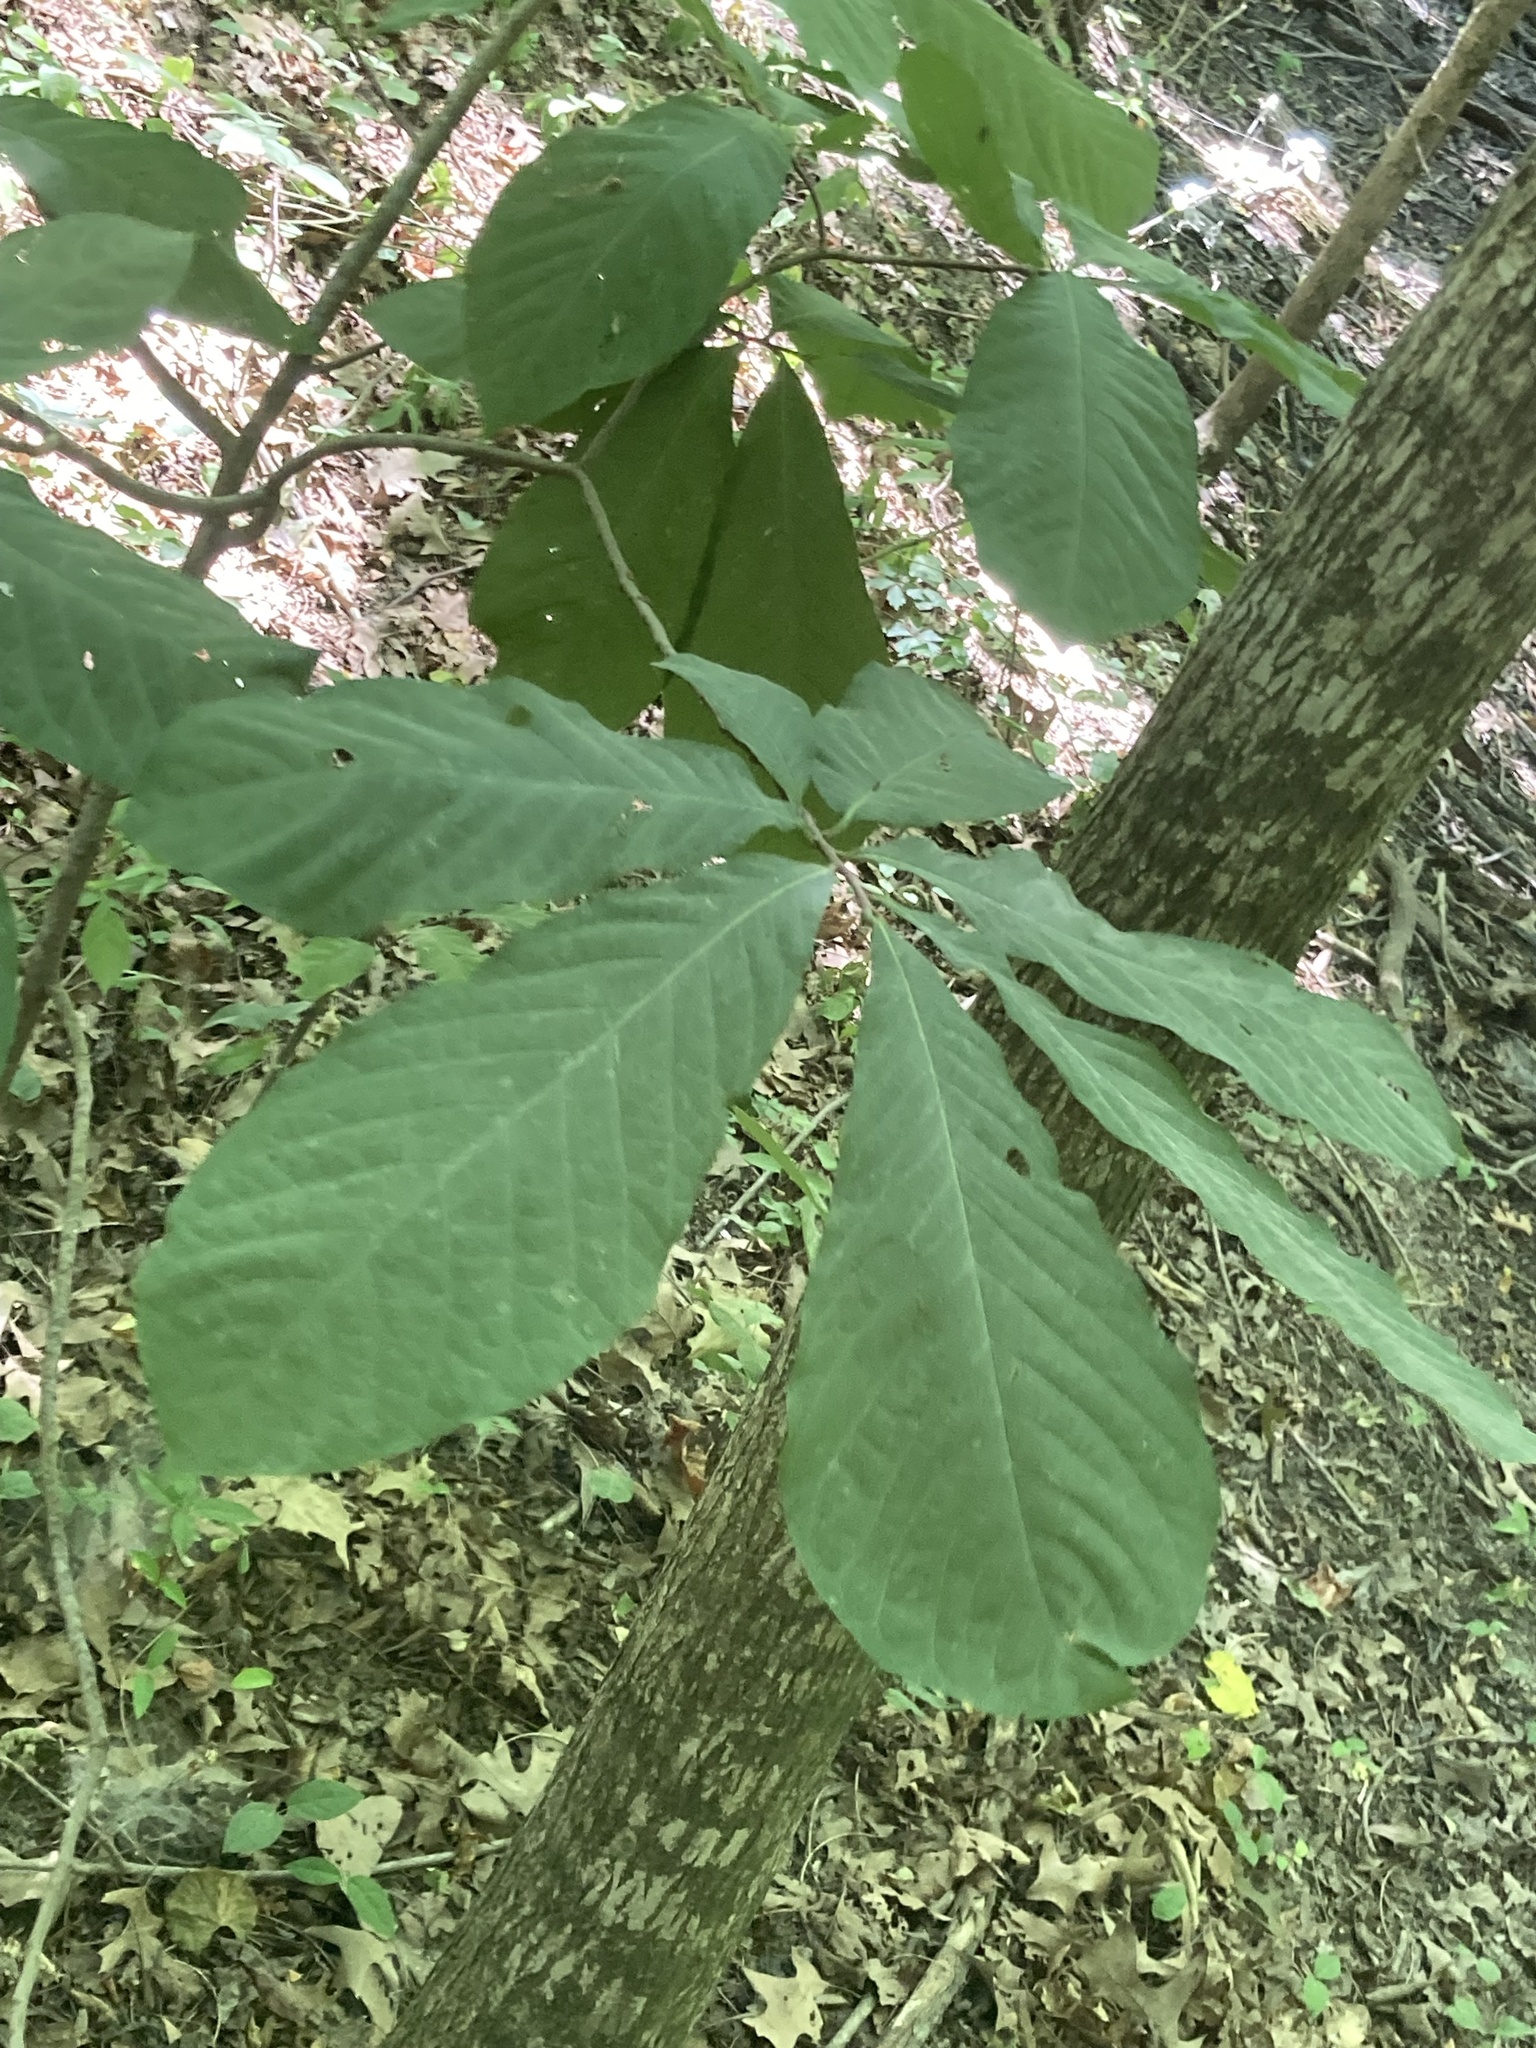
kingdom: Plantae
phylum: Tracheophyta
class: Magnoliopsida
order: Magnoliales
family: Annonaceae
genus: Asimina
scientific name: Asimina triloba
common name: Dog-banana
